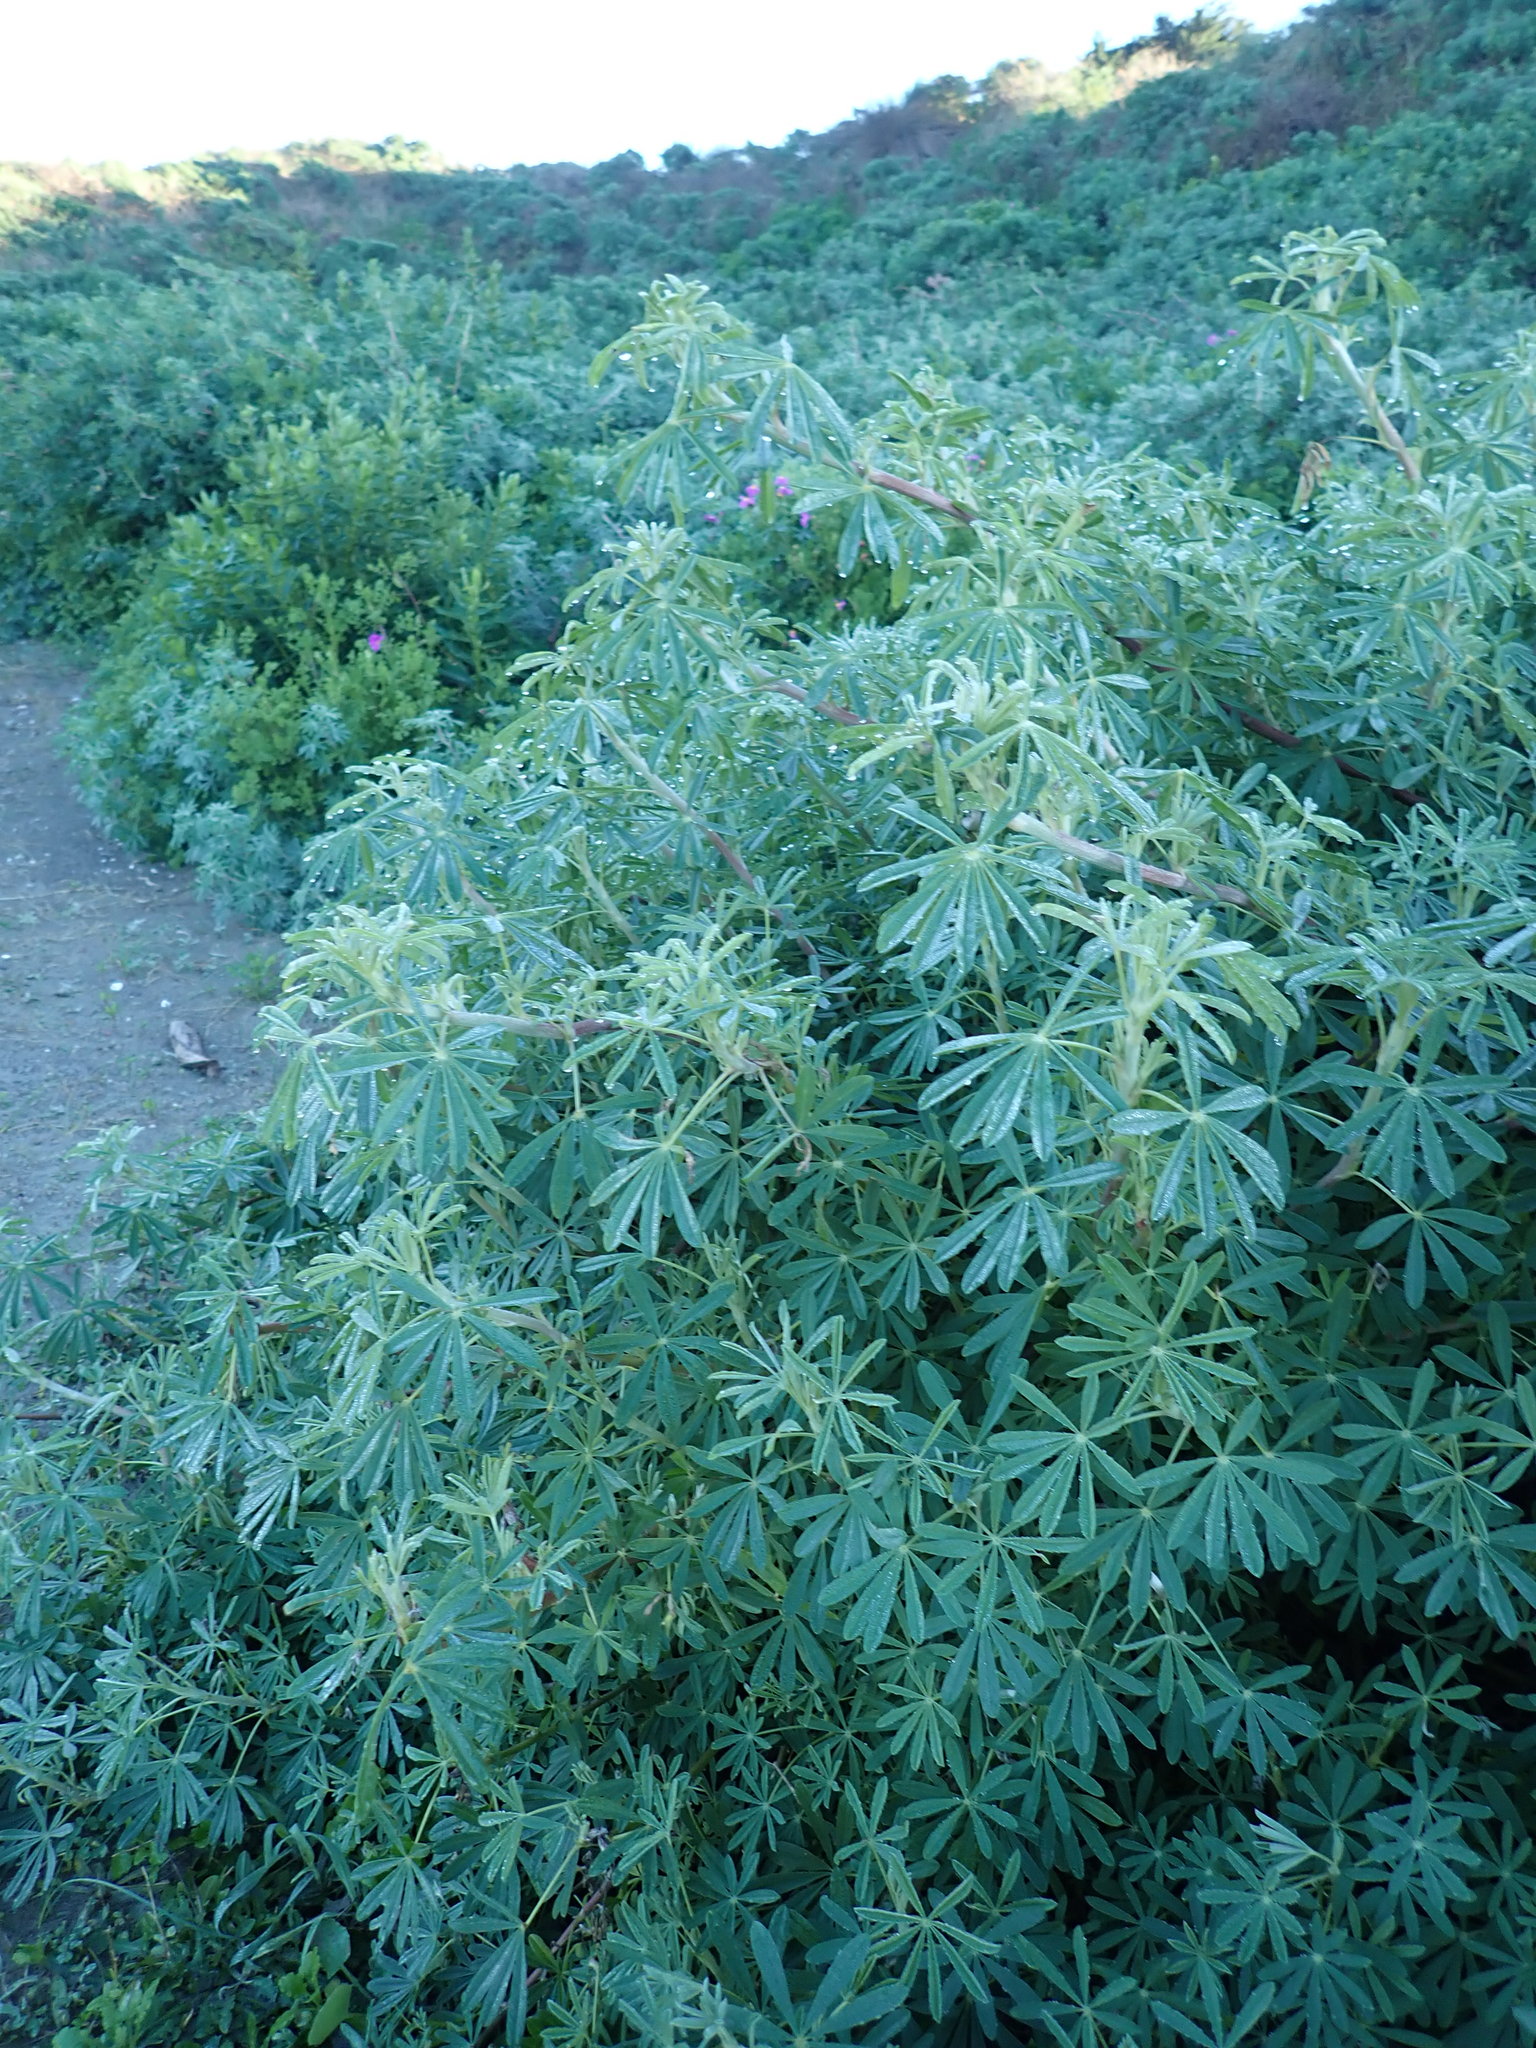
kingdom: Plantae
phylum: Tracheophyta
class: Magnoliopsida
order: Fabales
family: Fabaceae
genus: Lupinus
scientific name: Lupinus arboreus
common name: Yellow bush lupine
